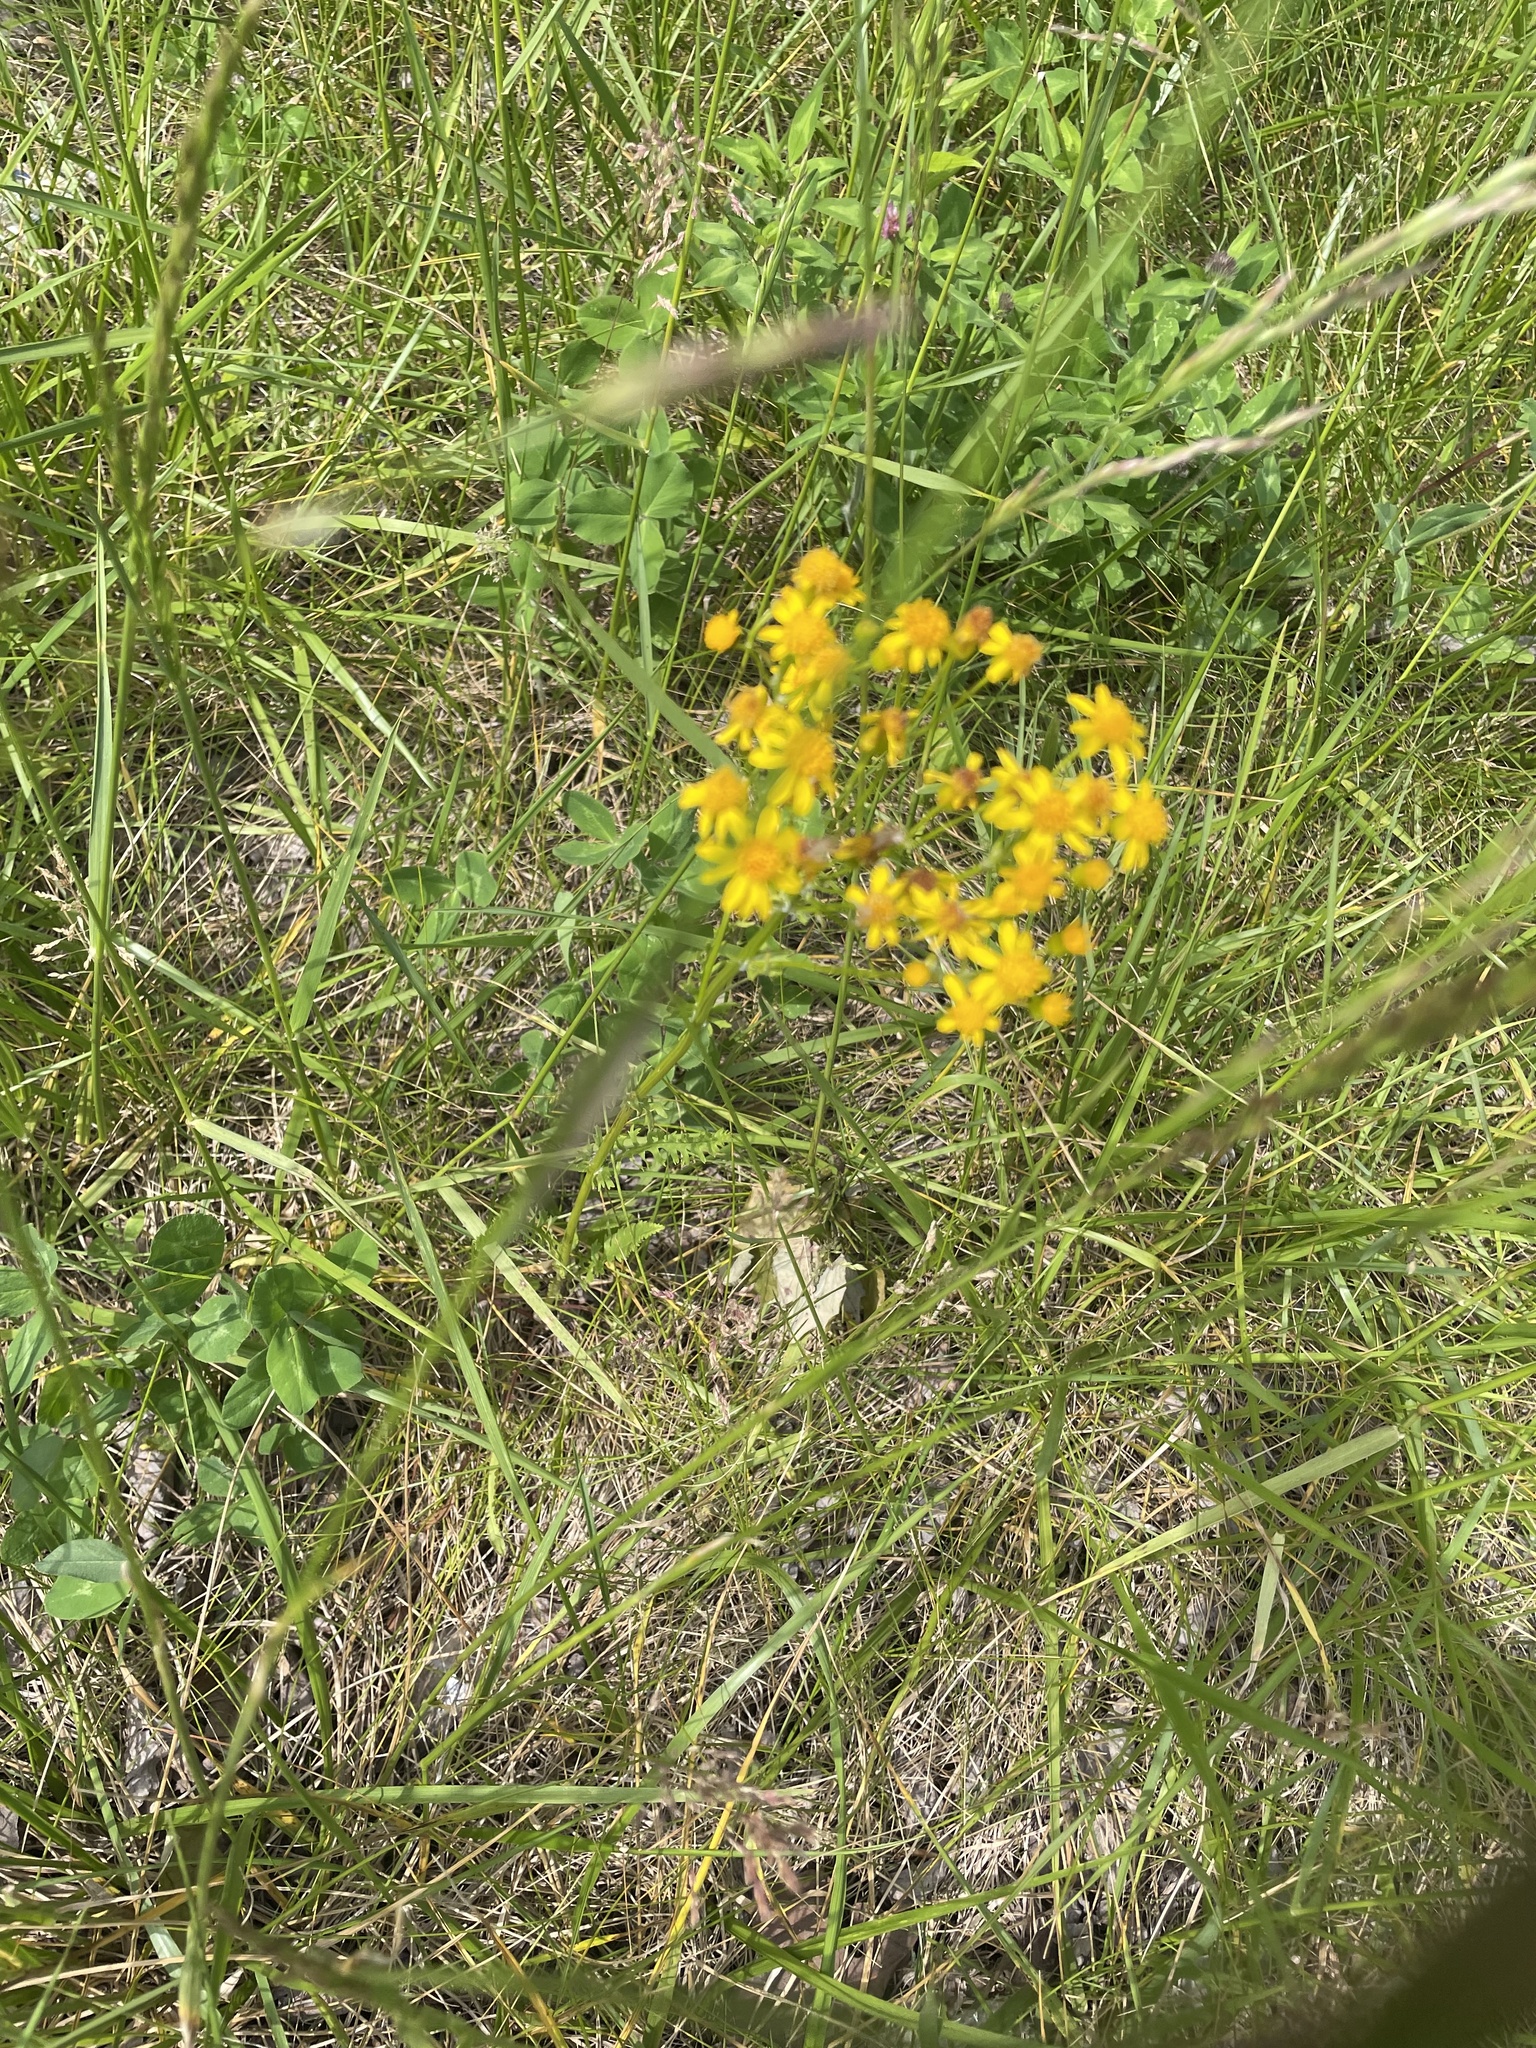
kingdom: Plantae
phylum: Tracheophyta
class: Magnoliopsida
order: Asterales
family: Asteraceae
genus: Packera
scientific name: Packera anonyma
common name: Small ragwort
